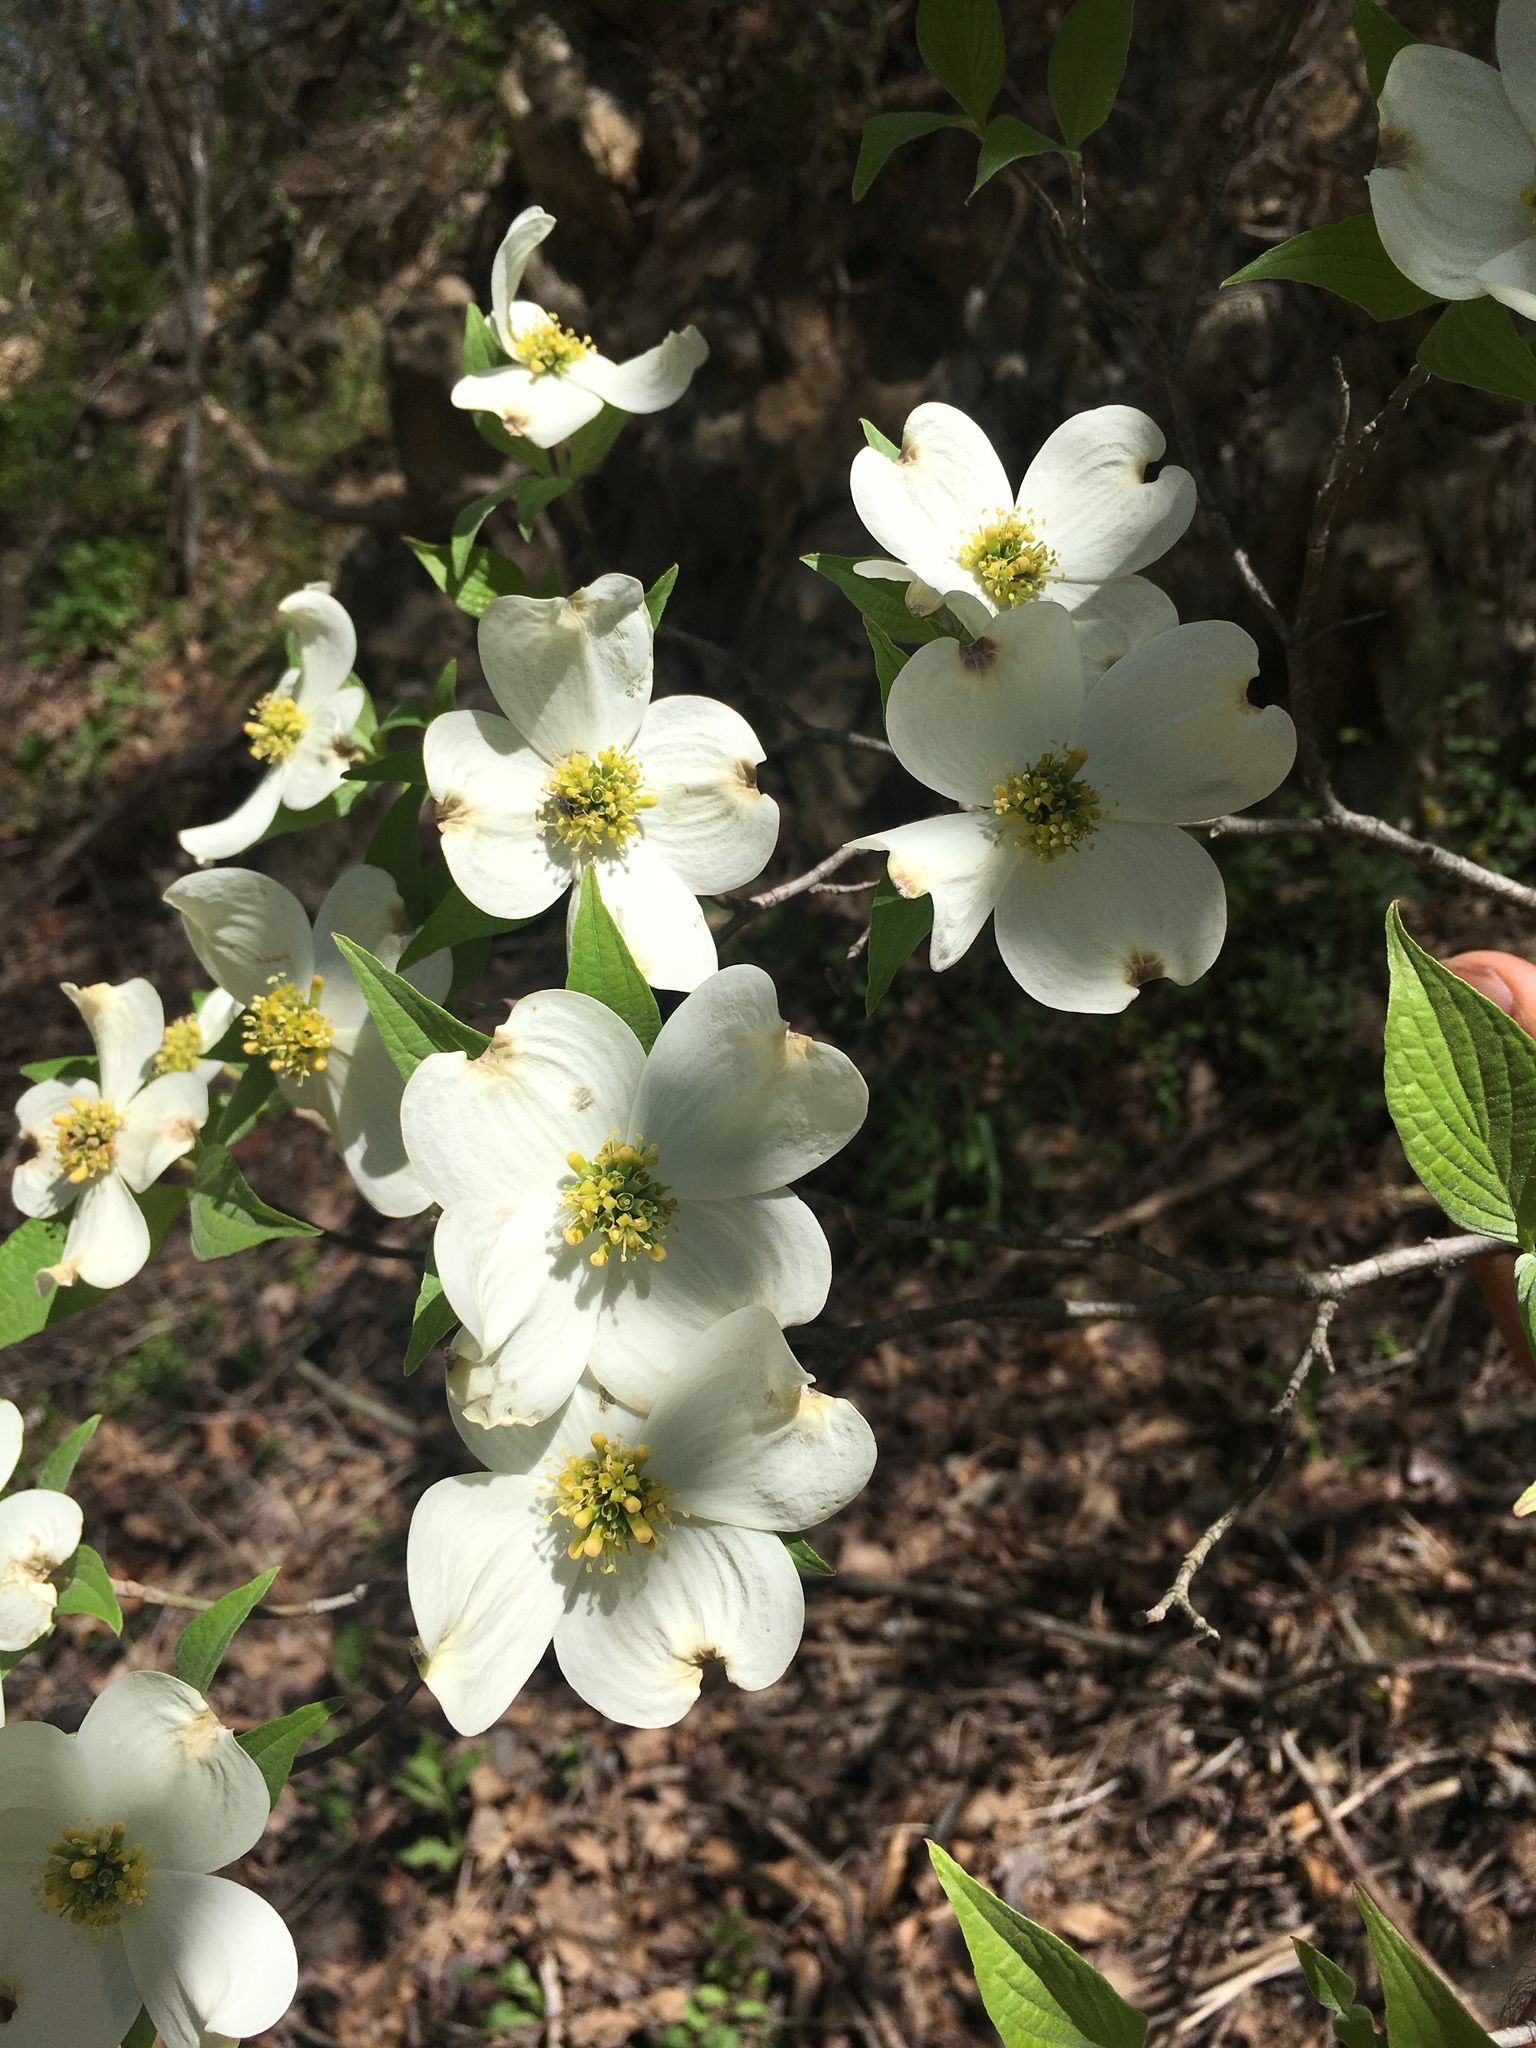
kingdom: Plantae
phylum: Tracheophyta
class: Magnoliopsida
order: Cornales
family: Cornaceae
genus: Cornus
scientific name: Cornus florida
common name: Flowering dogwood
